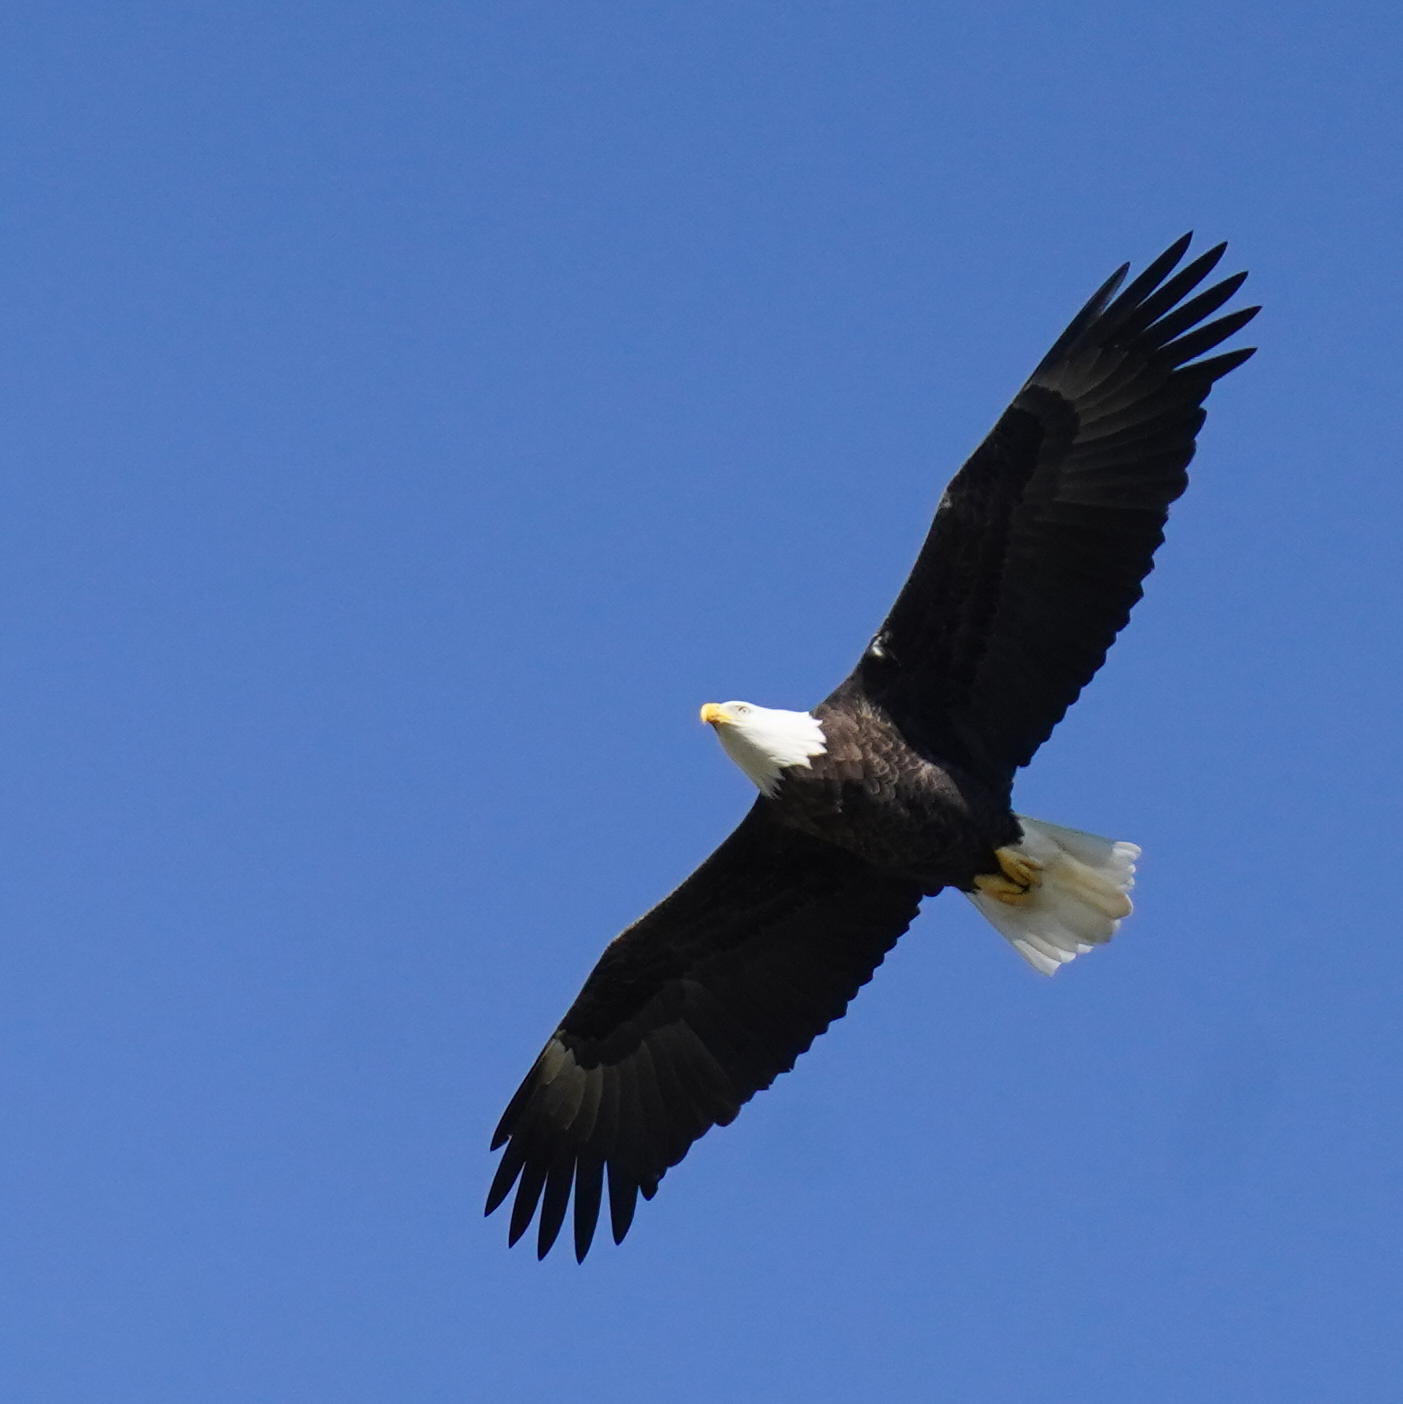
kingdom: Animalia
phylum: Chordata
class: Aves
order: Accipitriformes
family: Accipitridae
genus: Haliaeetus
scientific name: Haliaeetus leucocephalus
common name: Bald eagle
